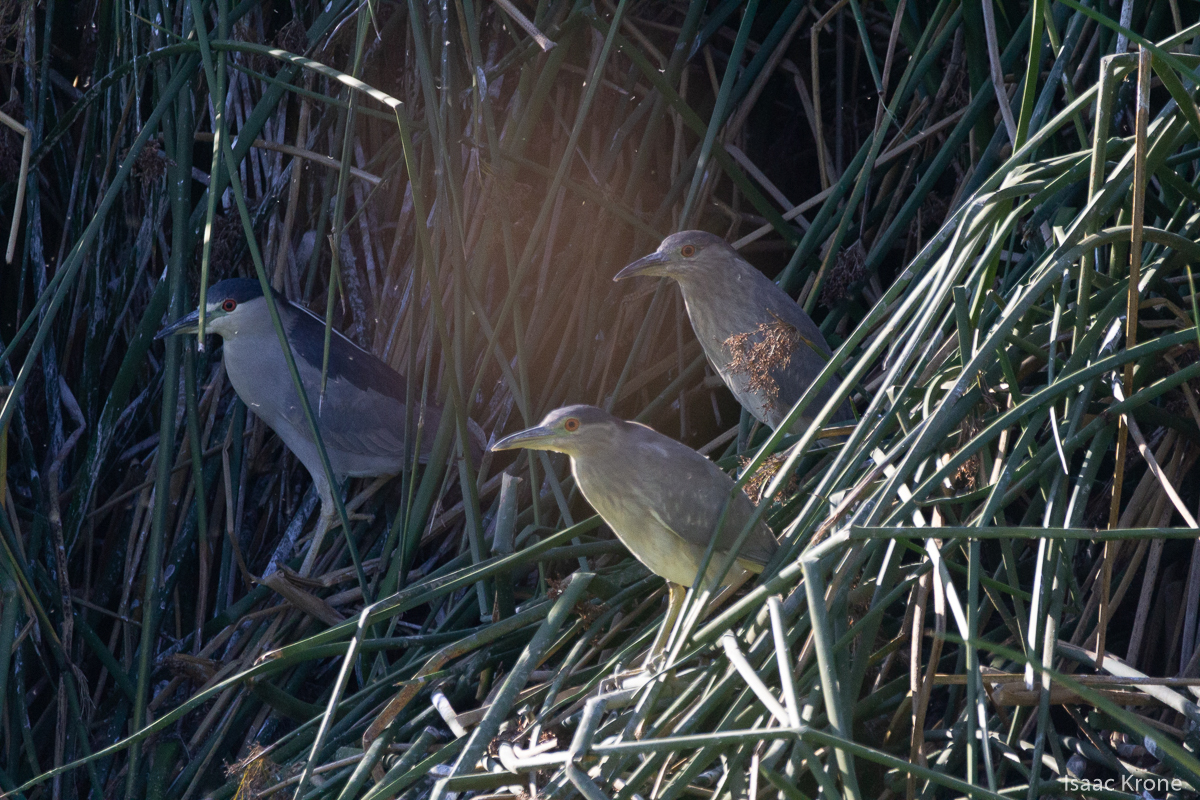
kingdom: Animalia
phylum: Chordata
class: Aves
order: Pelecaniformes
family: Ardeidae
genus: Nycticorax
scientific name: Nycticorax nycticorax
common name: Black-crowned night heron
